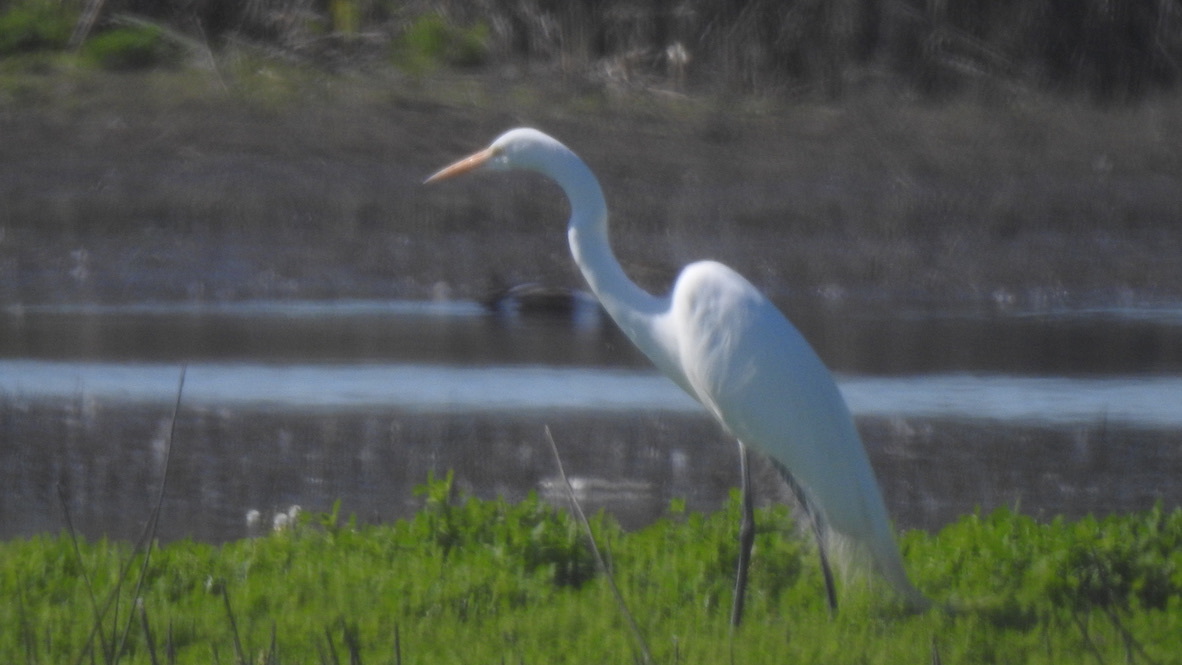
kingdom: Animalia
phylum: Chordata
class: Aves
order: Pelecaniformes
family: Ardeidae
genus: Ardea
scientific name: Ardea alba
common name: Great egret
